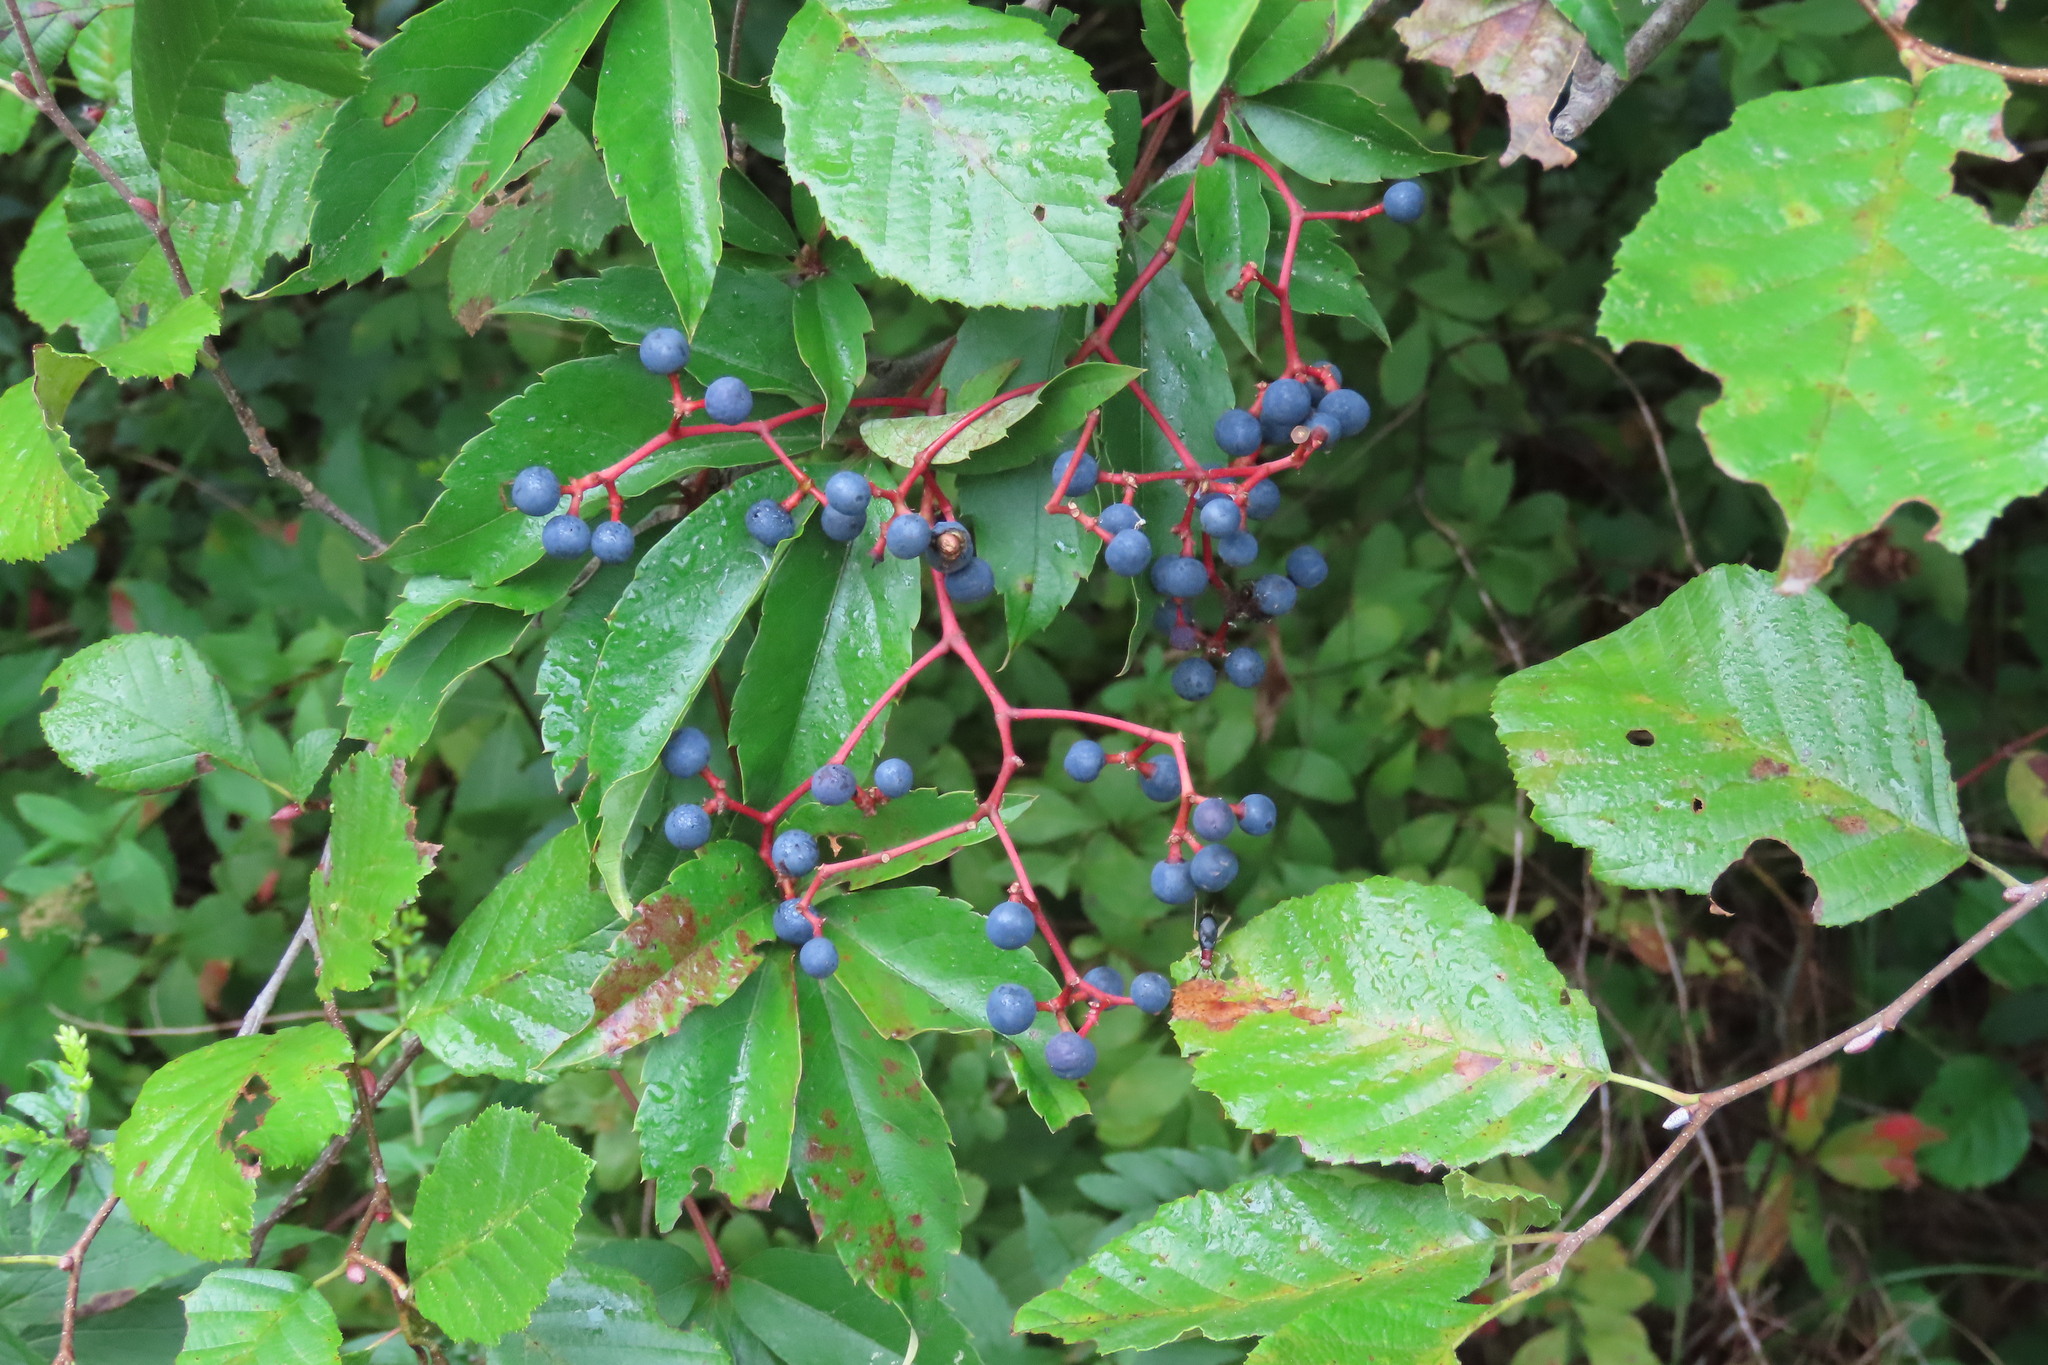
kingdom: Plantae
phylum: Tracheophyta
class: Magnoliopsida
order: Vitales
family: Vitaceae
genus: Parthenocissus
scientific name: Parthenocissus quinquefolia
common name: Virginia-creeper
